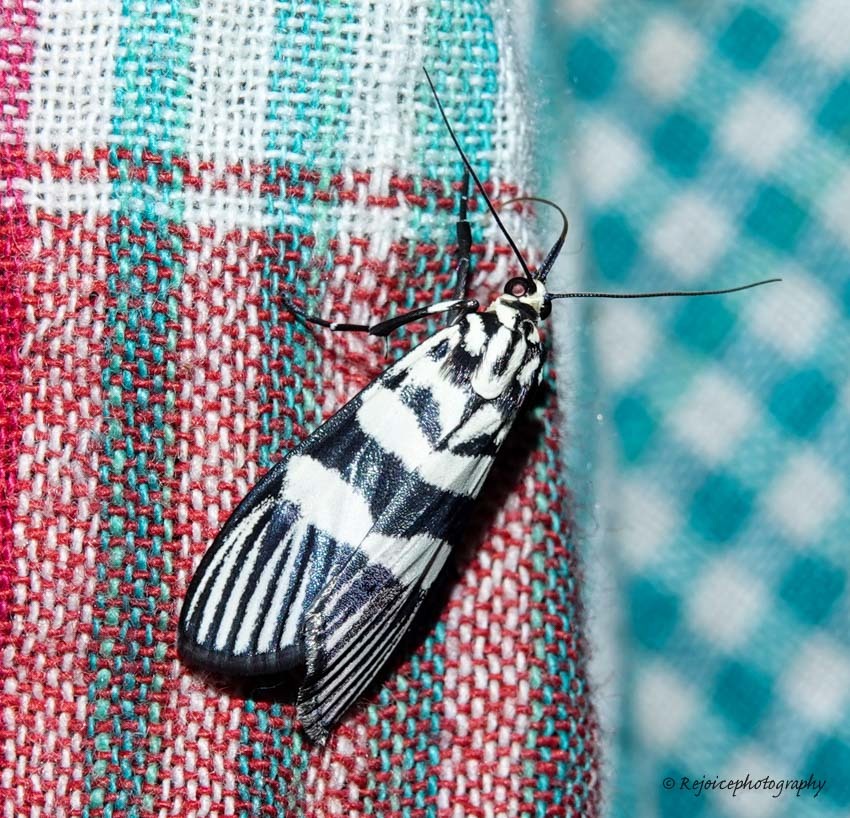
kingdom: Animalia
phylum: Arthropoda
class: Insecta
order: Lepidoptera
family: Crambidae
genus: Heortia
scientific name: Heortia vitessoides
